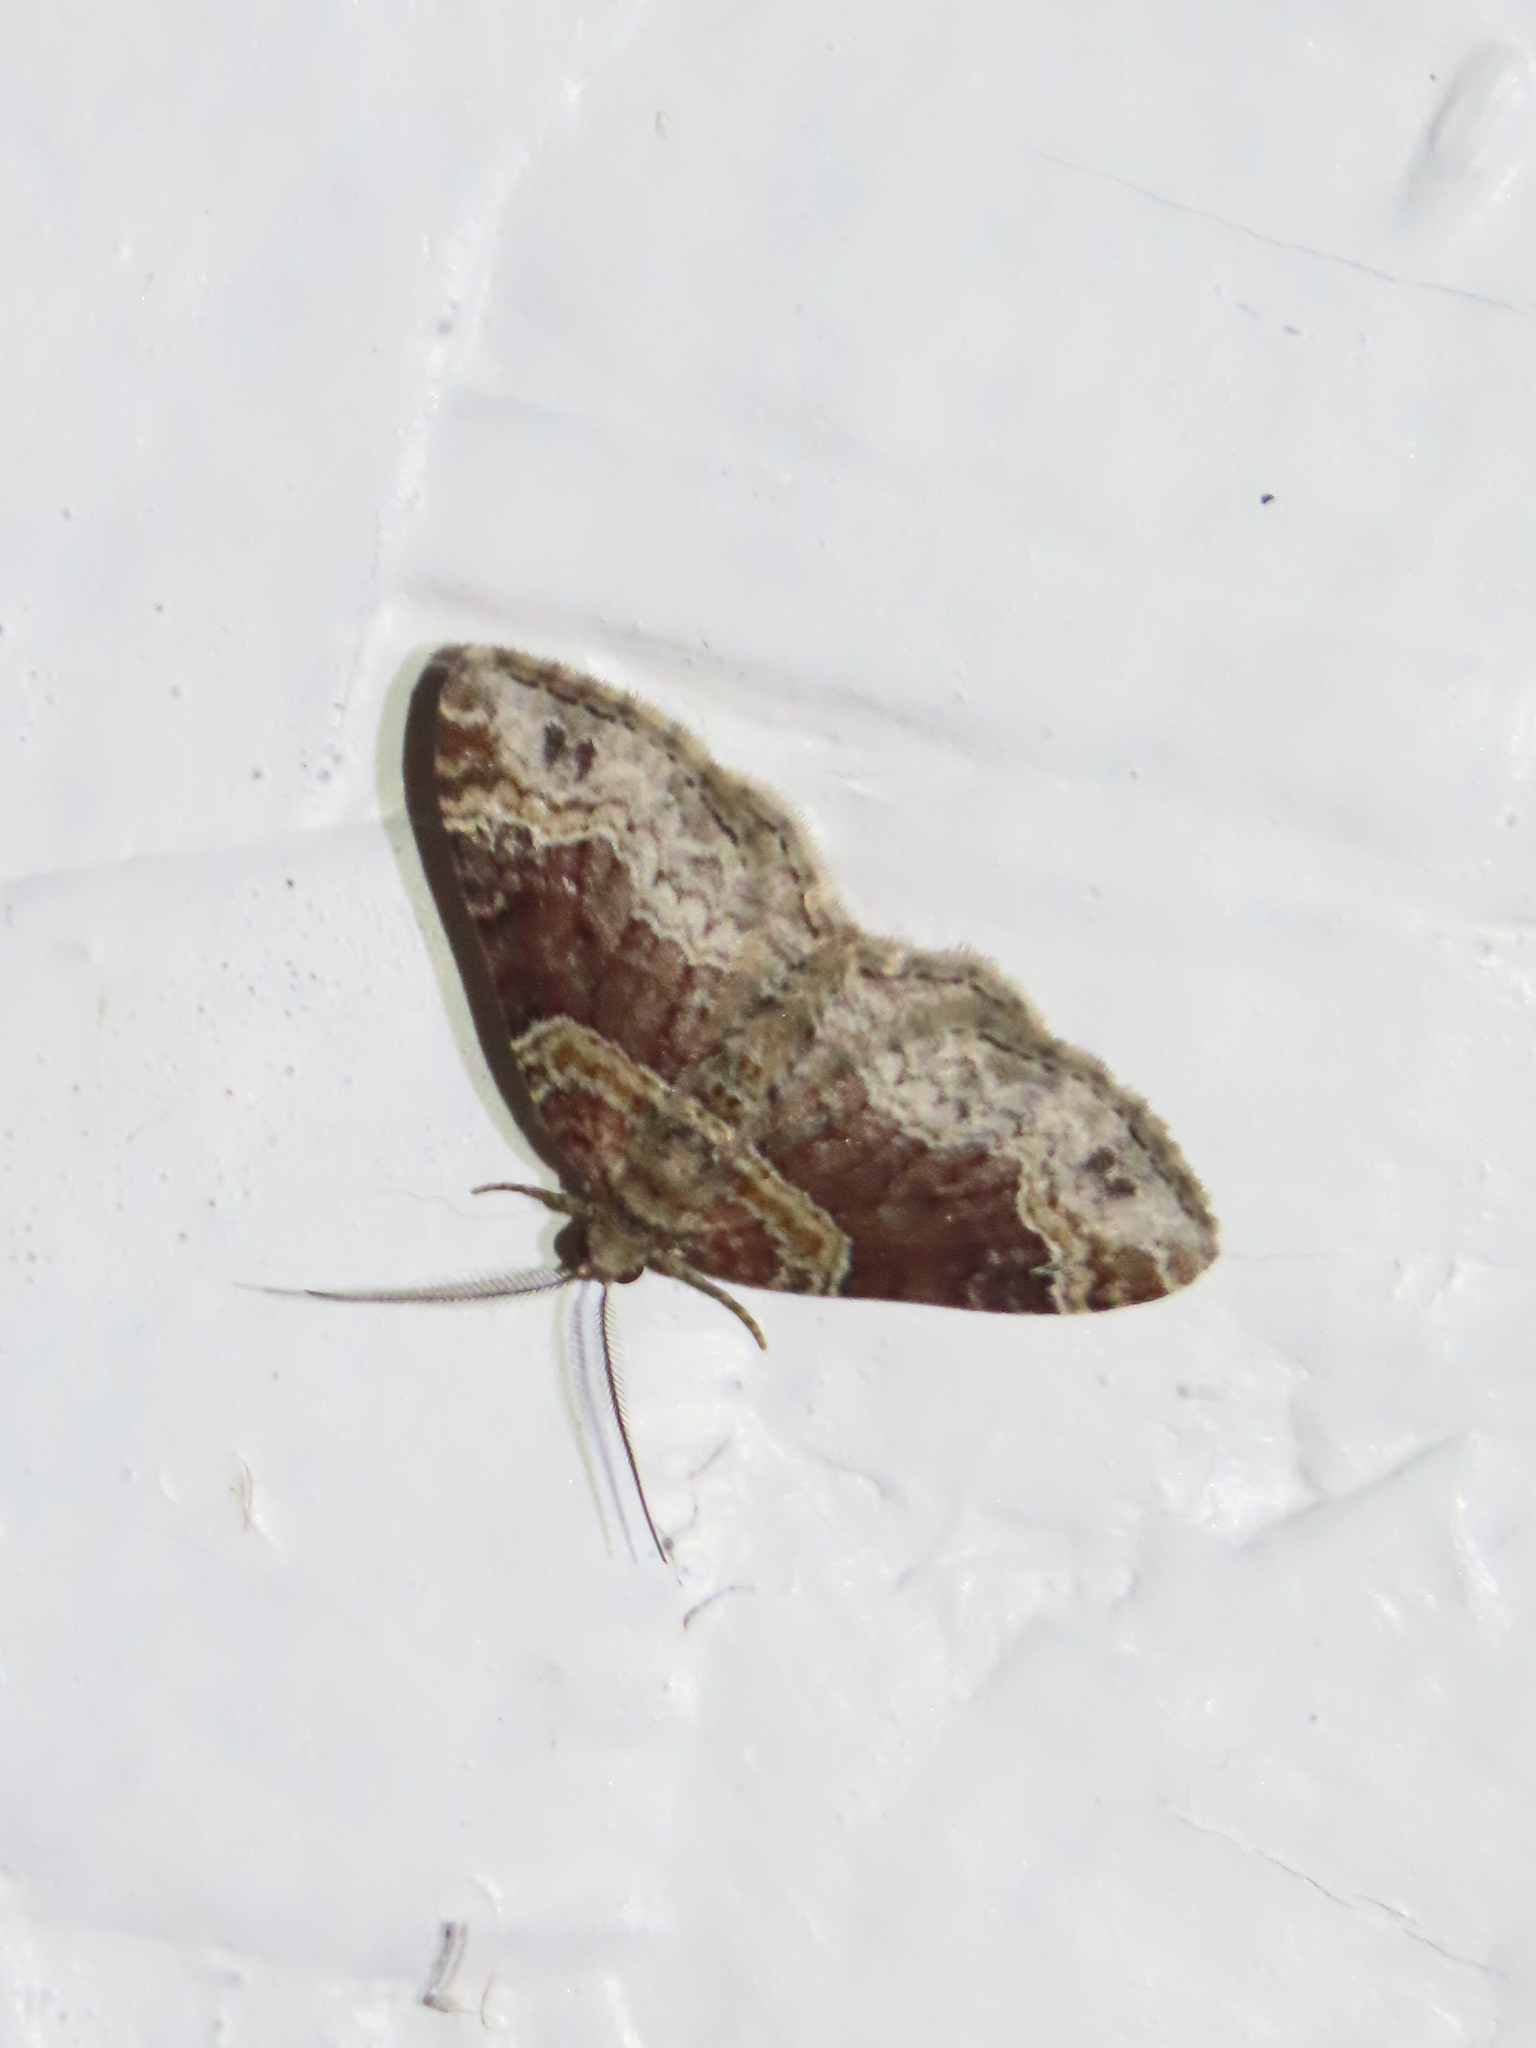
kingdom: Animalia
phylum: Arthropoda
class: Insecta
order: Lepidoptera
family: Geometridae
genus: Xanthorhoe
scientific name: Xanthorhoe ferrugata
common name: Dark-barred twin-spot carpet
